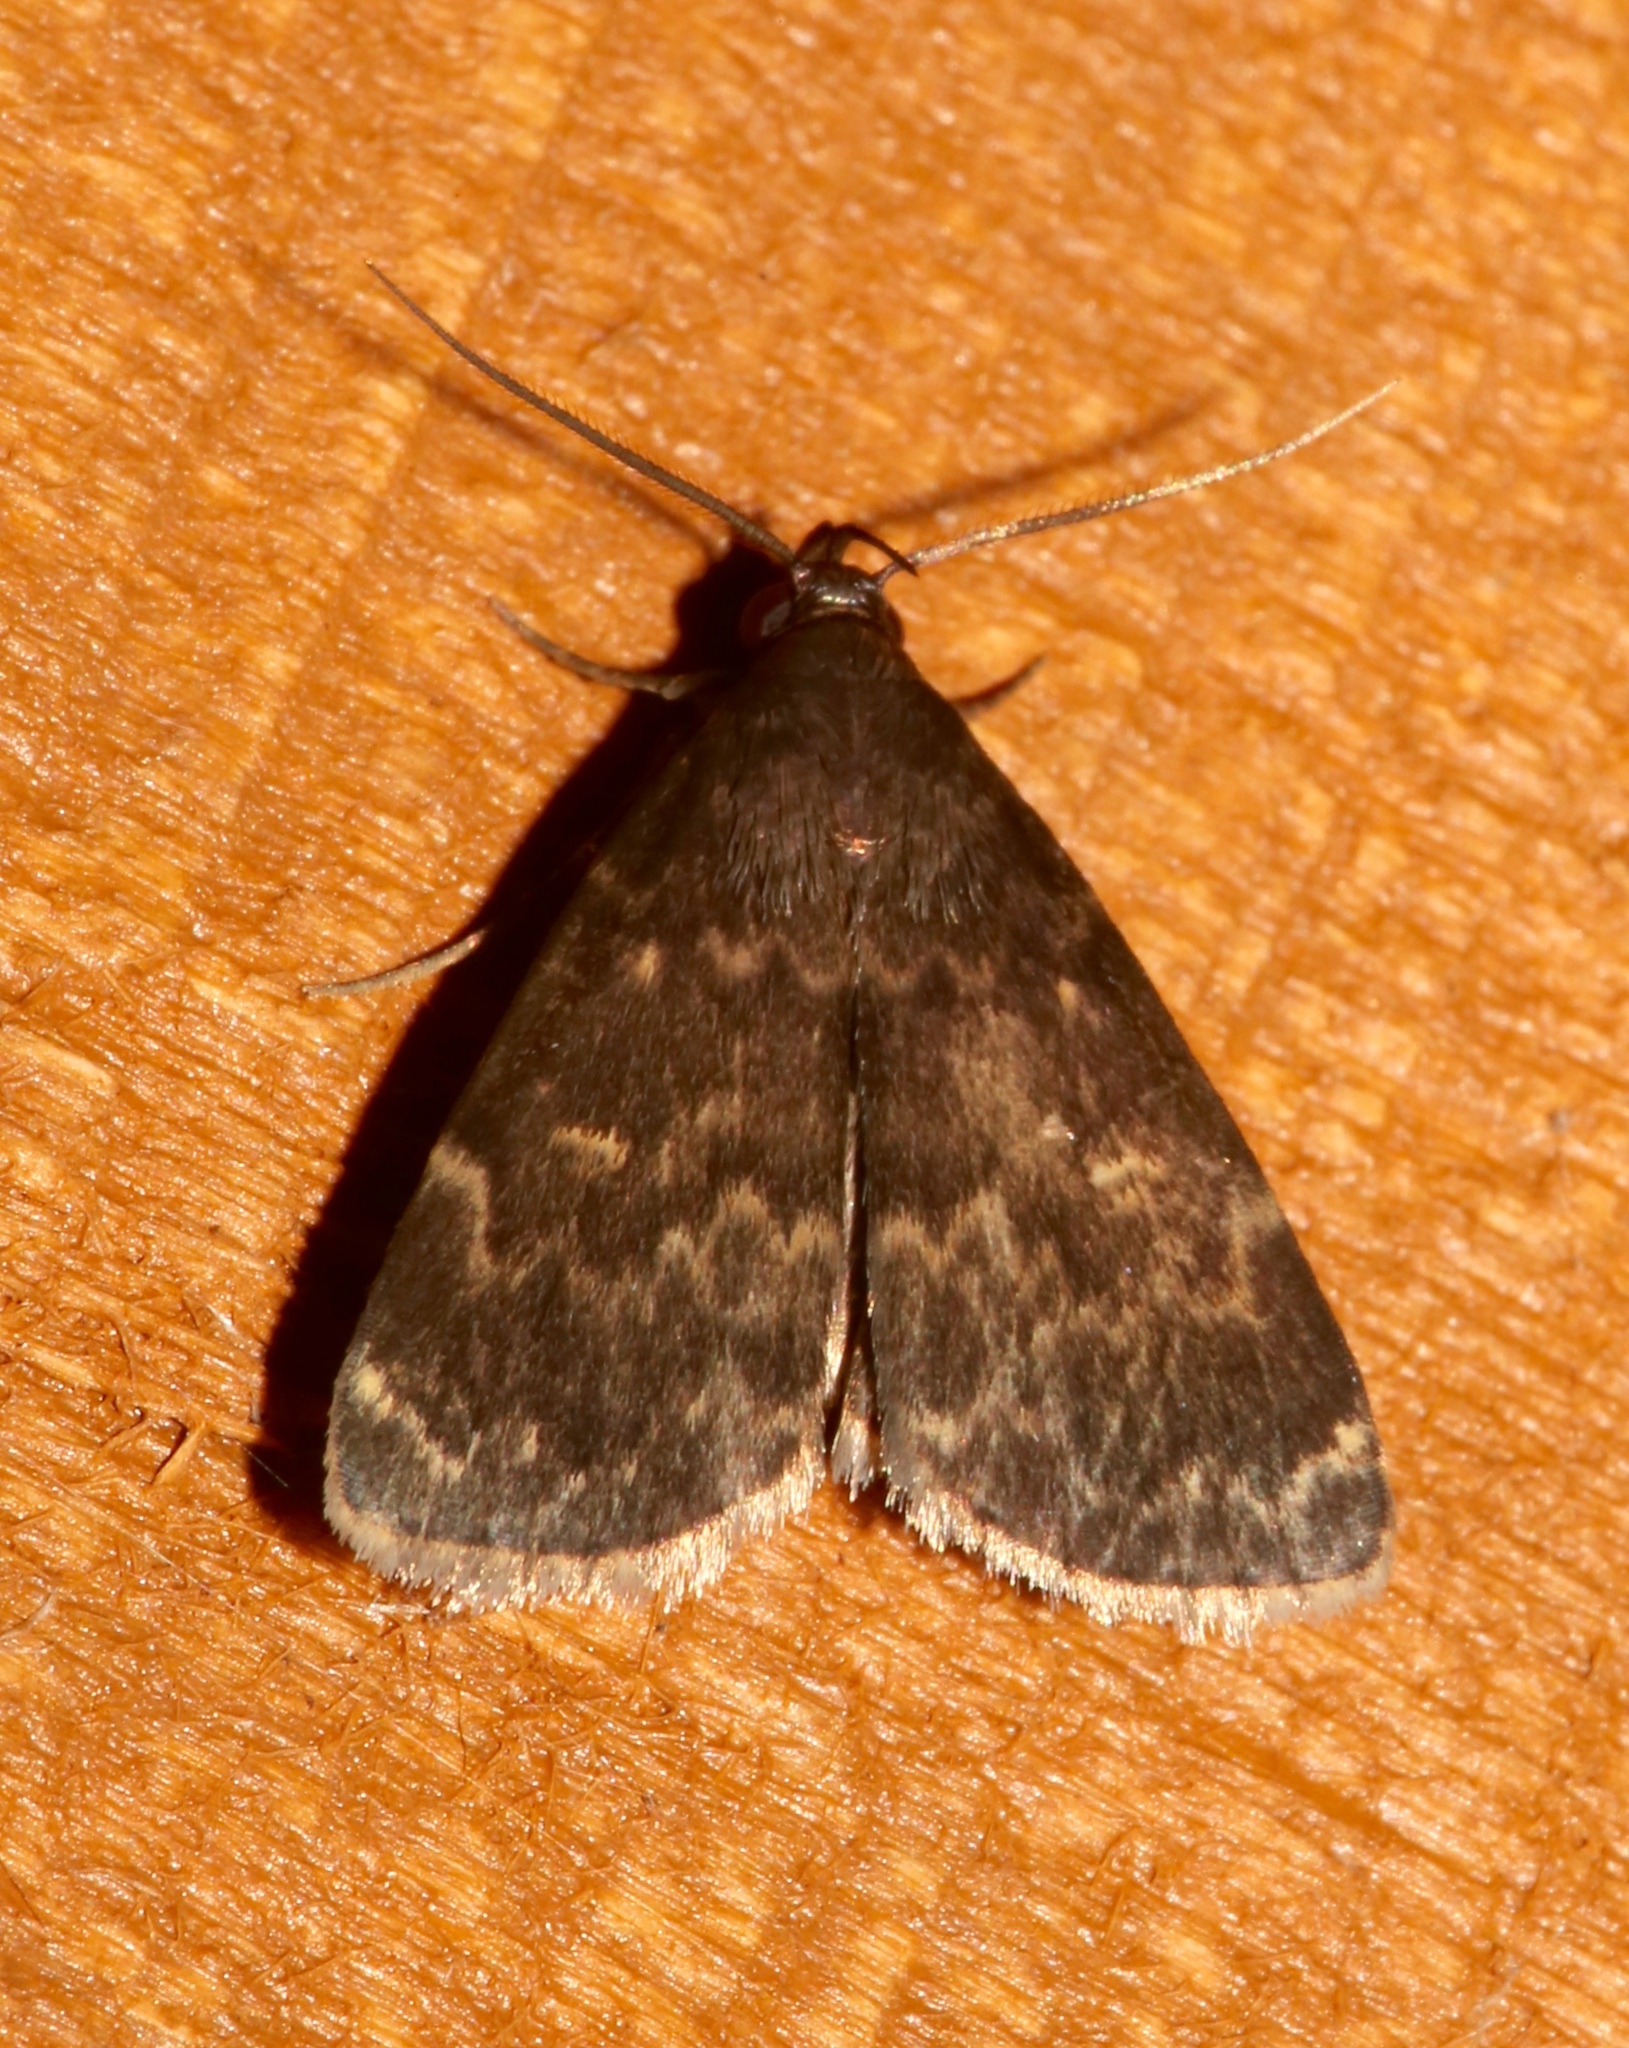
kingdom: Animalia
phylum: Arthropoda
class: Insecta
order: Lepidoptera
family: Erebidae
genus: Idia
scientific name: Idia lubricalis
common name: Twin-striped tabby
